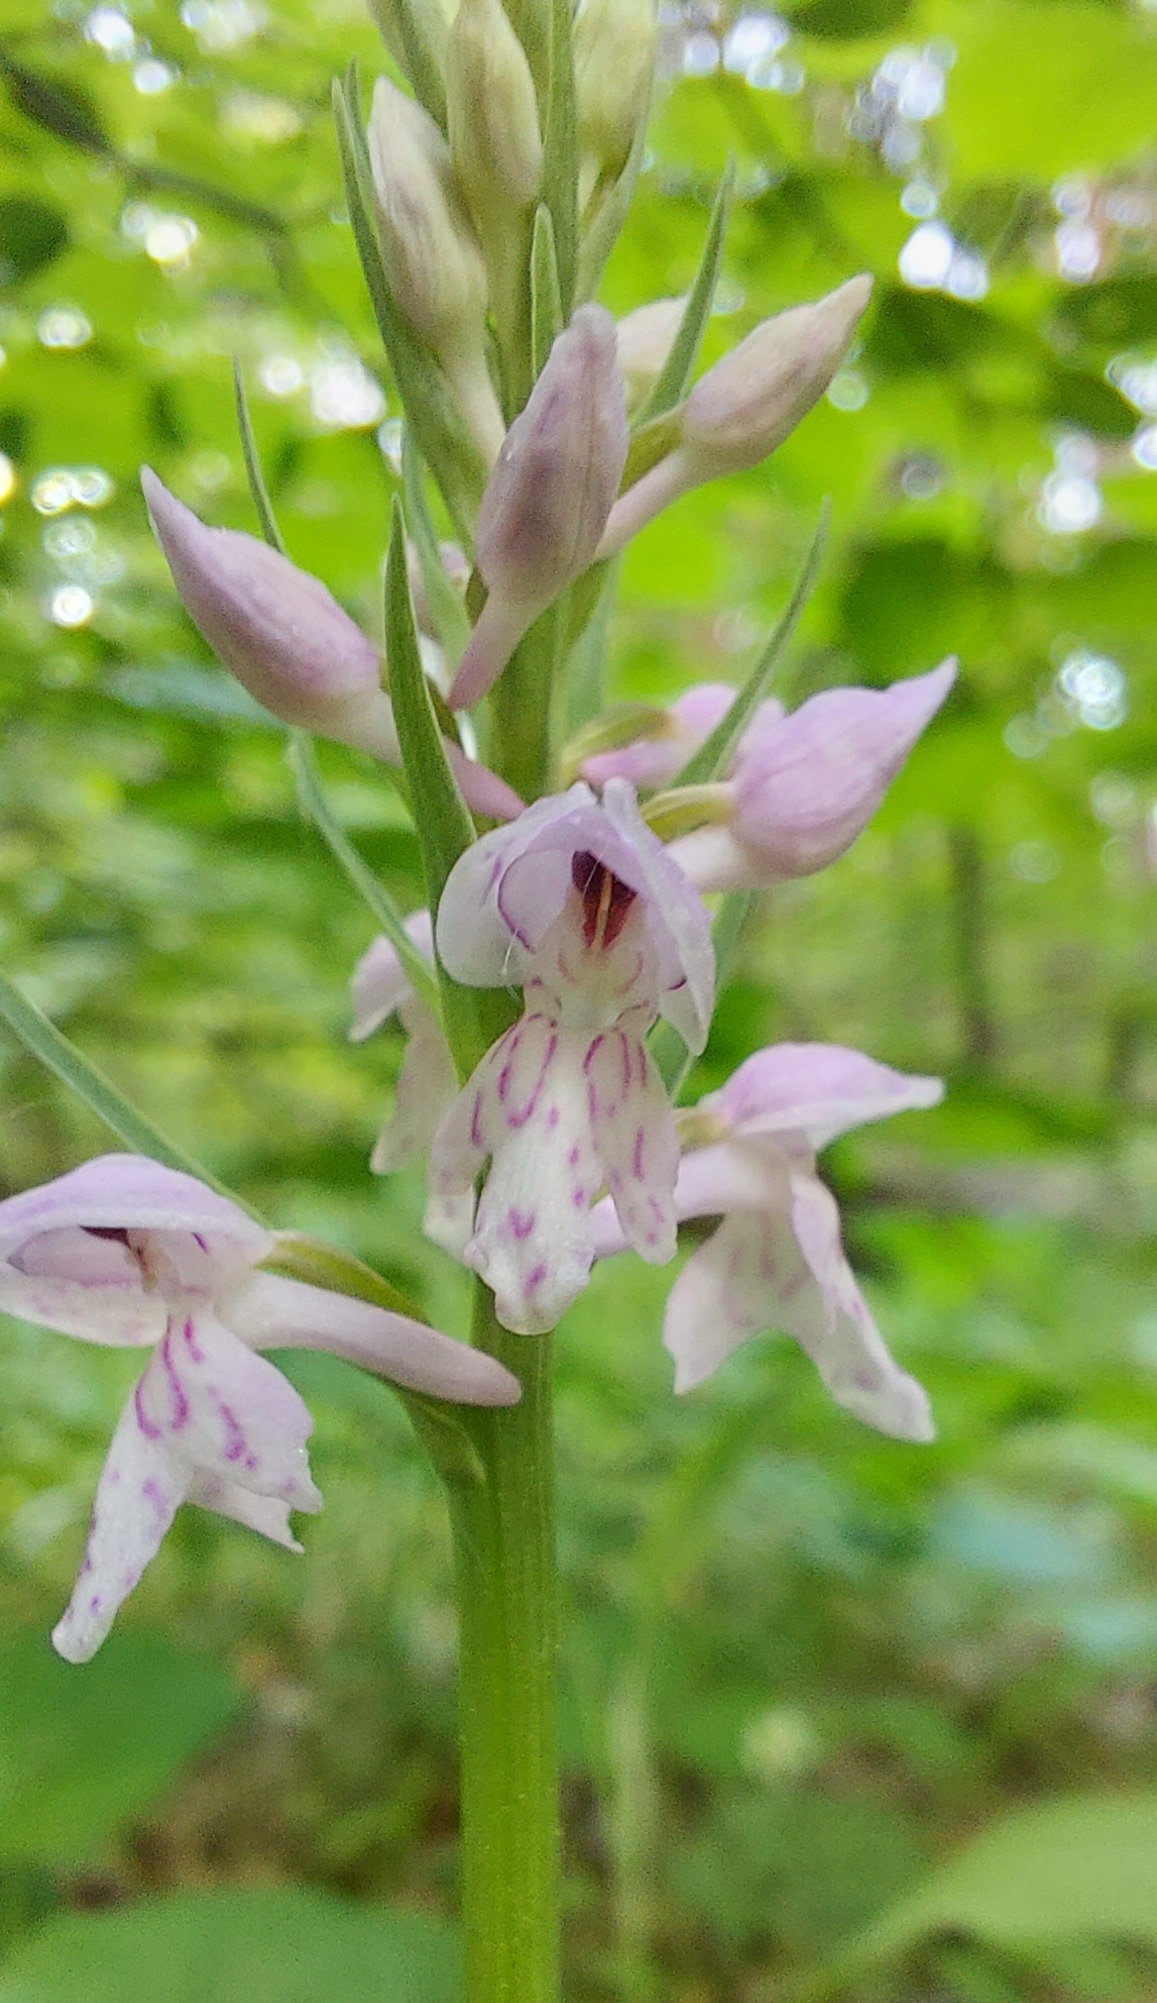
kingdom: Plantae
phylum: Tracheophyta
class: Liliopsida
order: Asparagales
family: Orchidaceae
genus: Dactylorhiza
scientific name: Dactylorhiza maculata
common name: Heath spotted-orchid
